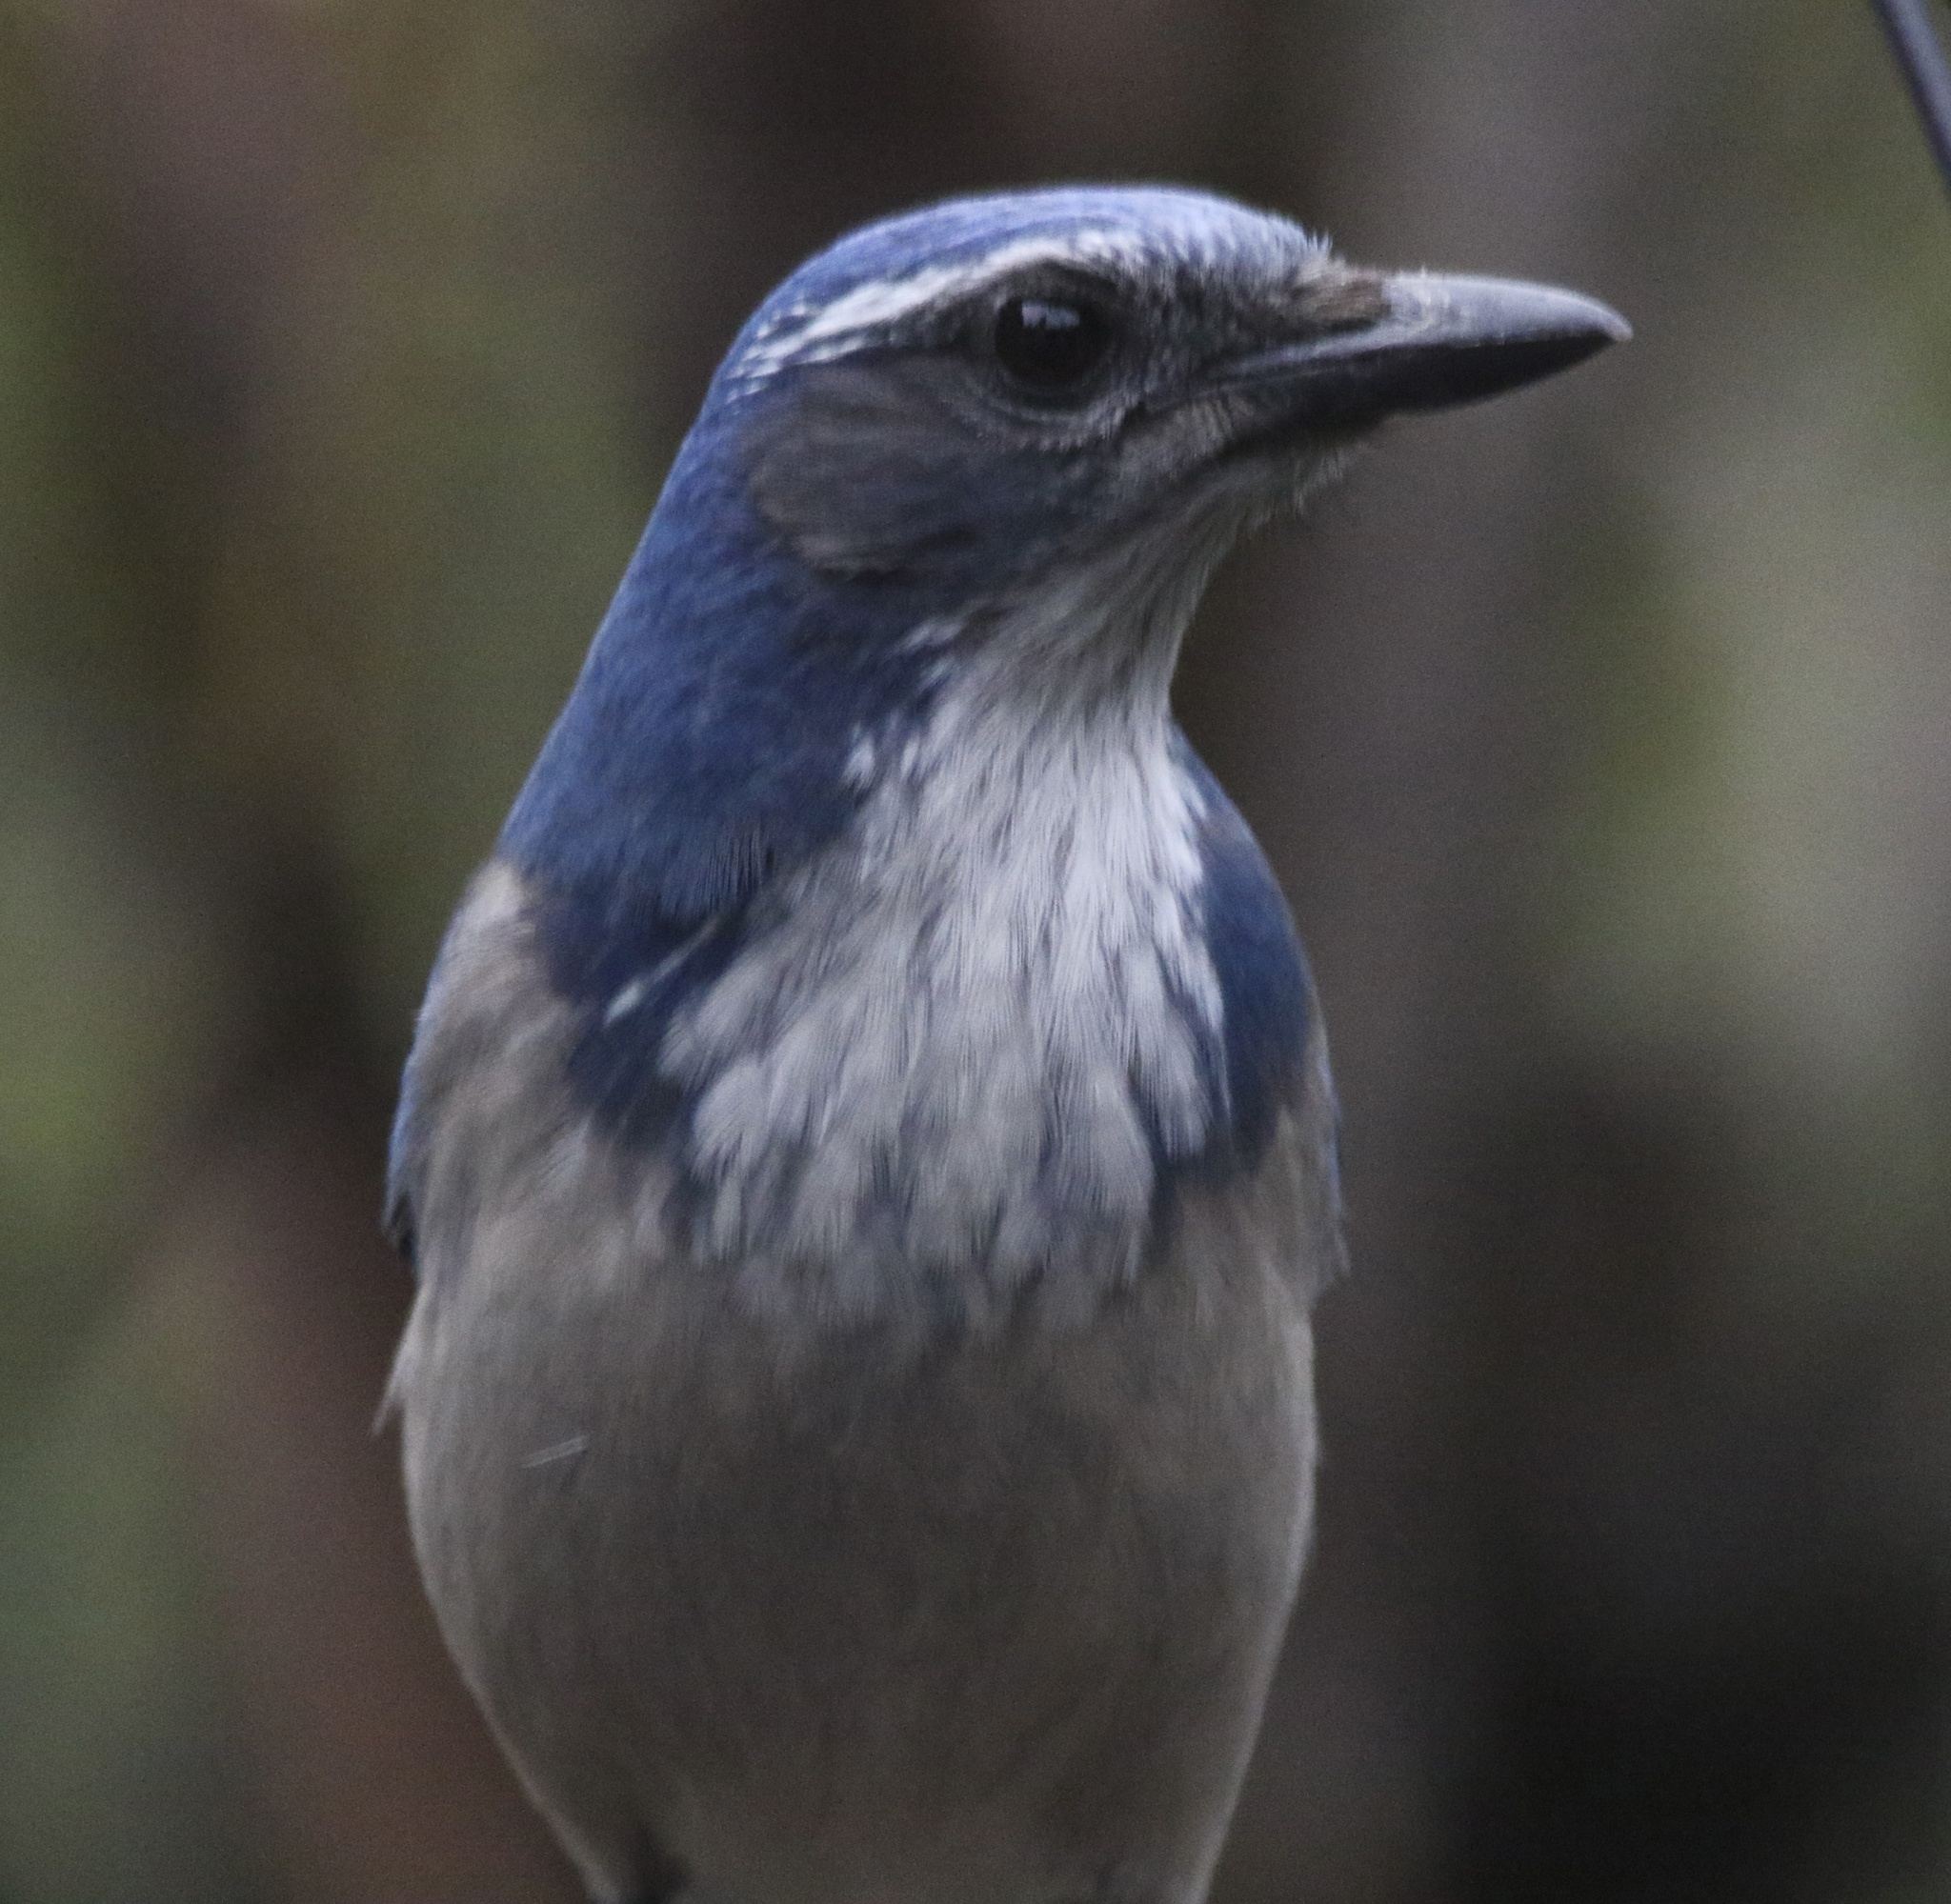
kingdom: Animalia
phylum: Chordata
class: Aves
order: Passeriformes
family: Corvidae
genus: Aphelocoma
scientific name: Aphelocoma californica
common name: California scrub-jay
